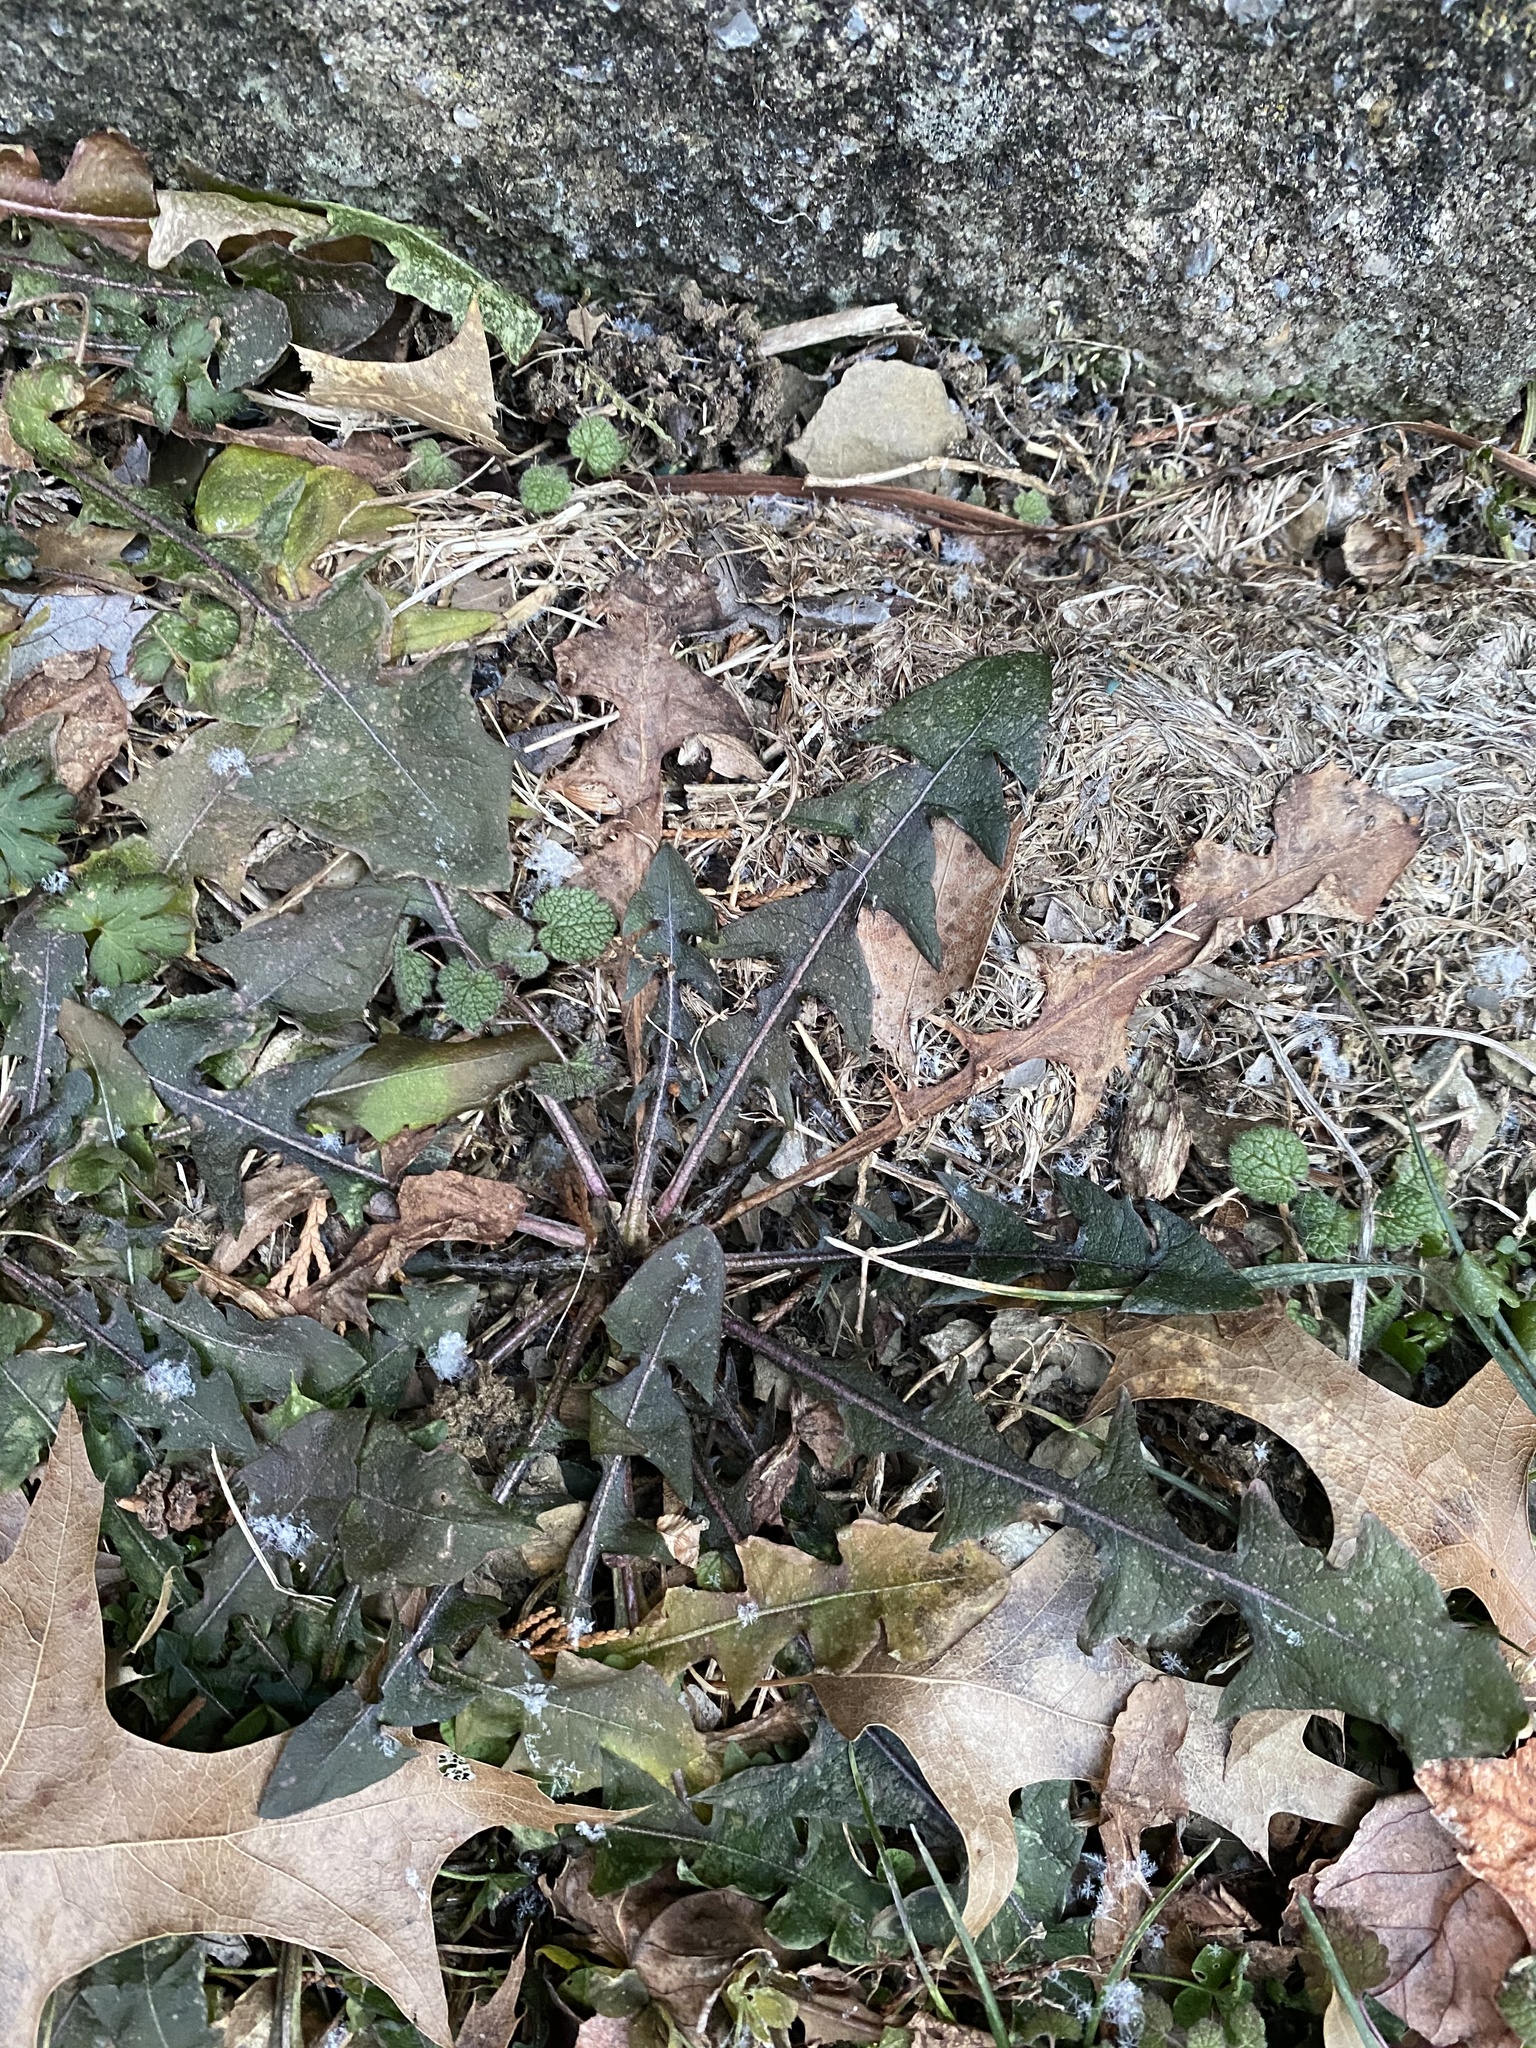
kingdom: Plantae
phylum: Tracheophyta
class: Magnoliopsida
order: Asterales
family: Asteraceae
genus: Taraxacum
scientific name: Taraxacum officinale
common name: Common dandelion
